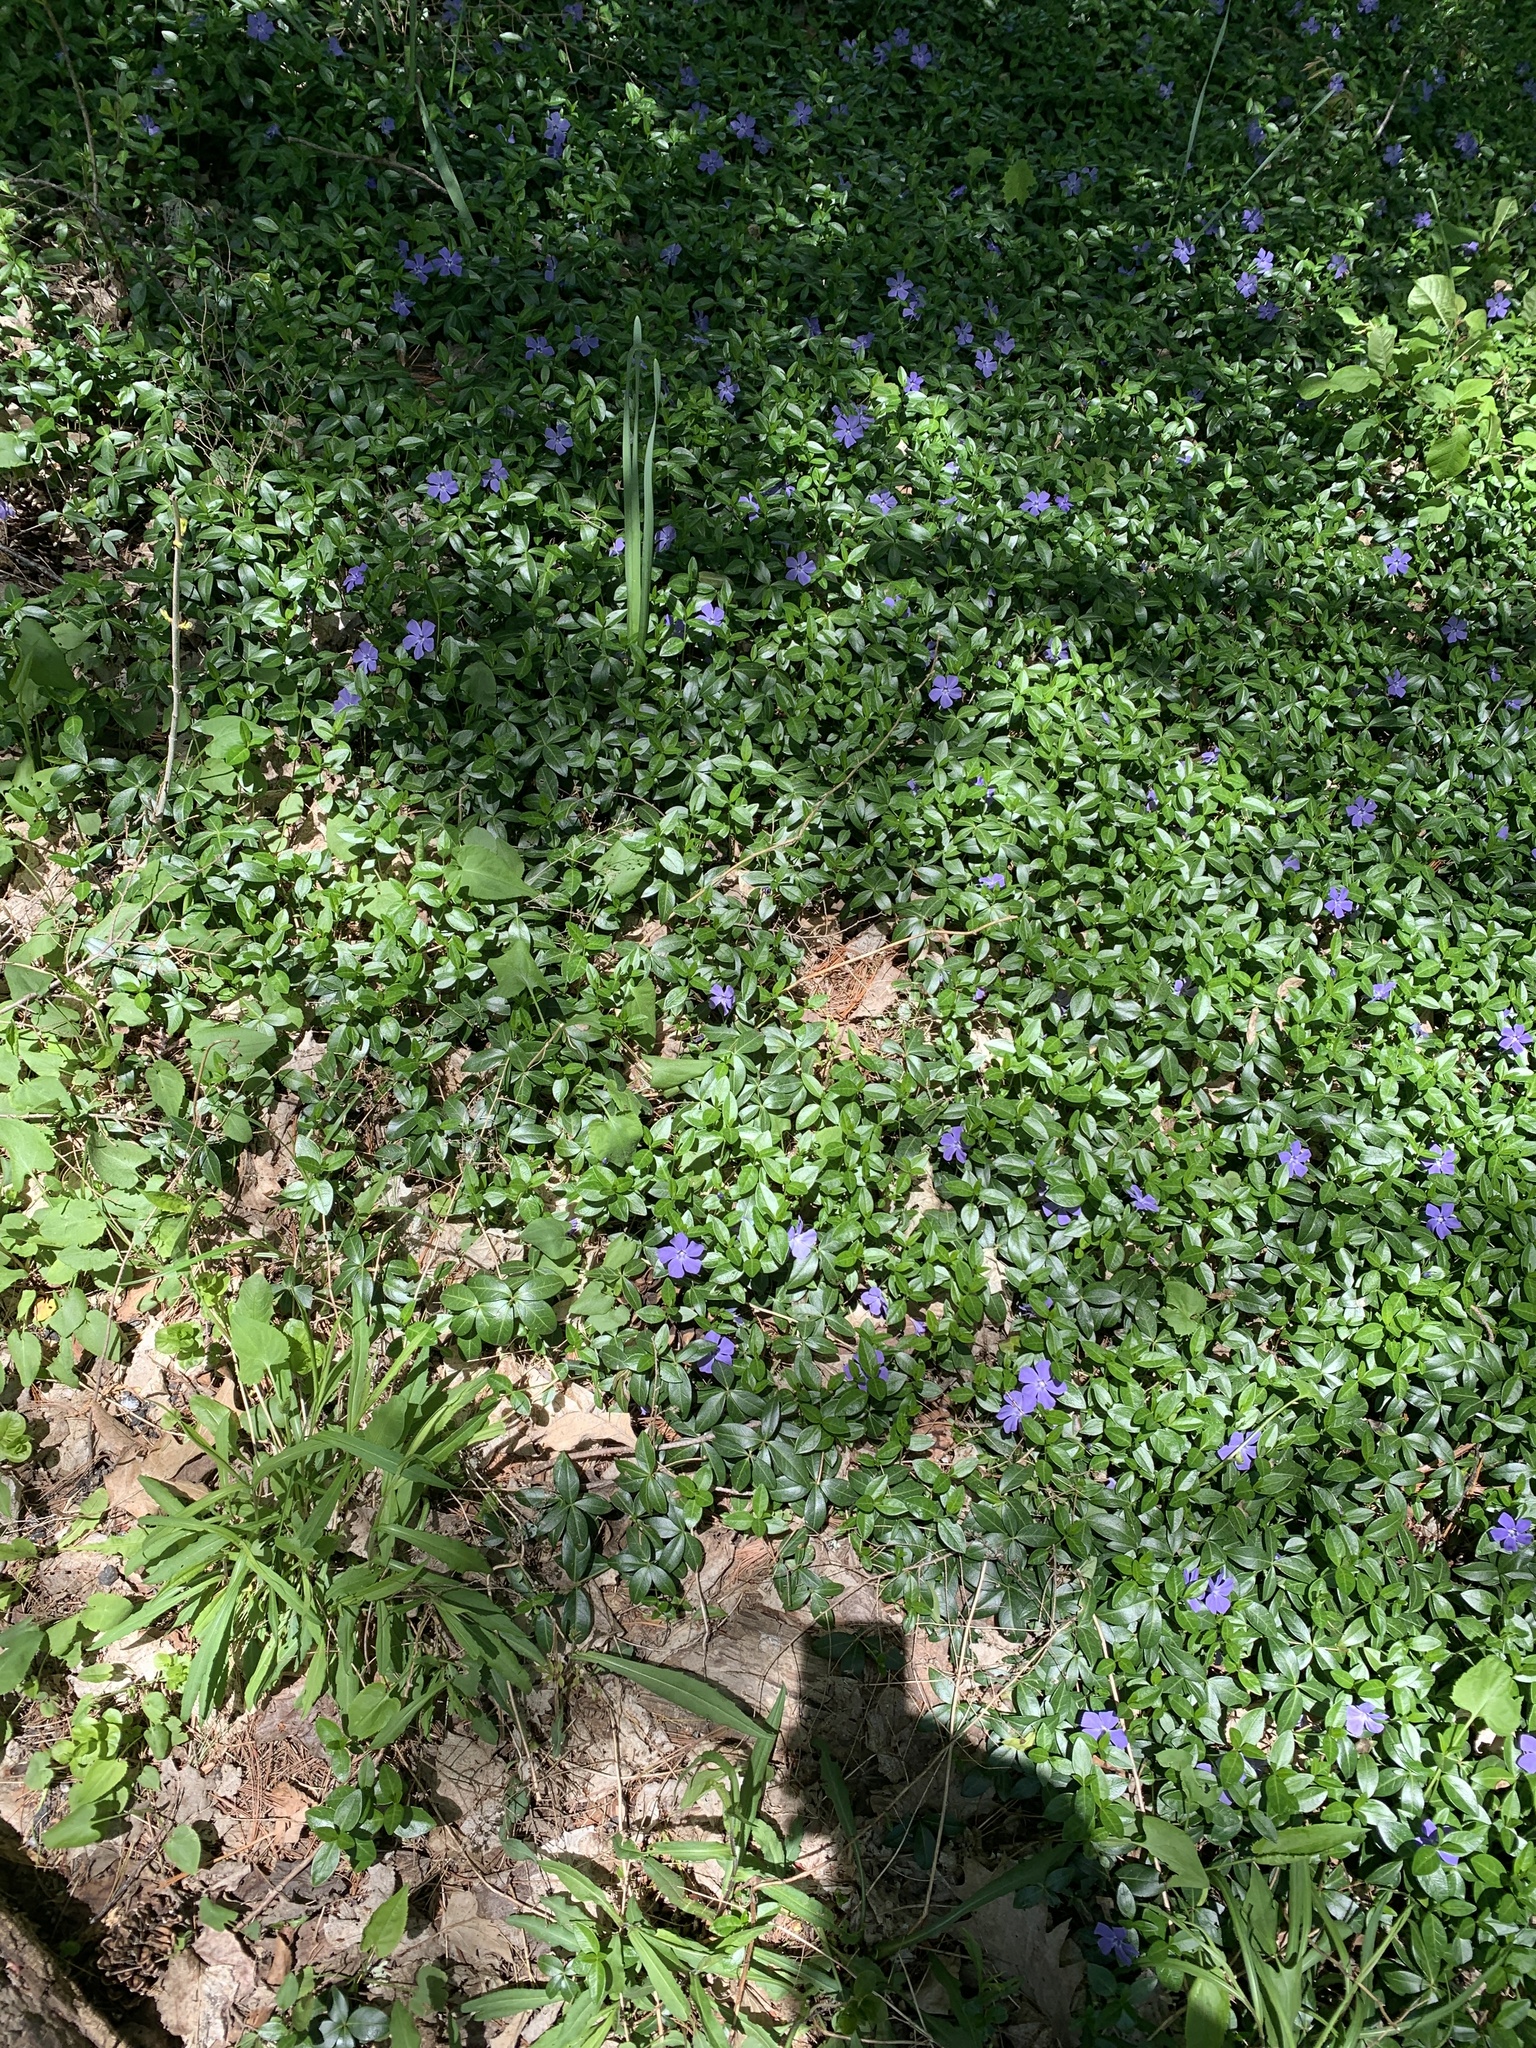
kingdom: Plantae
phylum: Tracheophyta
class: Magnoliopsida
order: Gentianales
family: Apocynaceae
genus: Vinca
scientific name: Vinca minor
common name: Lesser periwinkle
